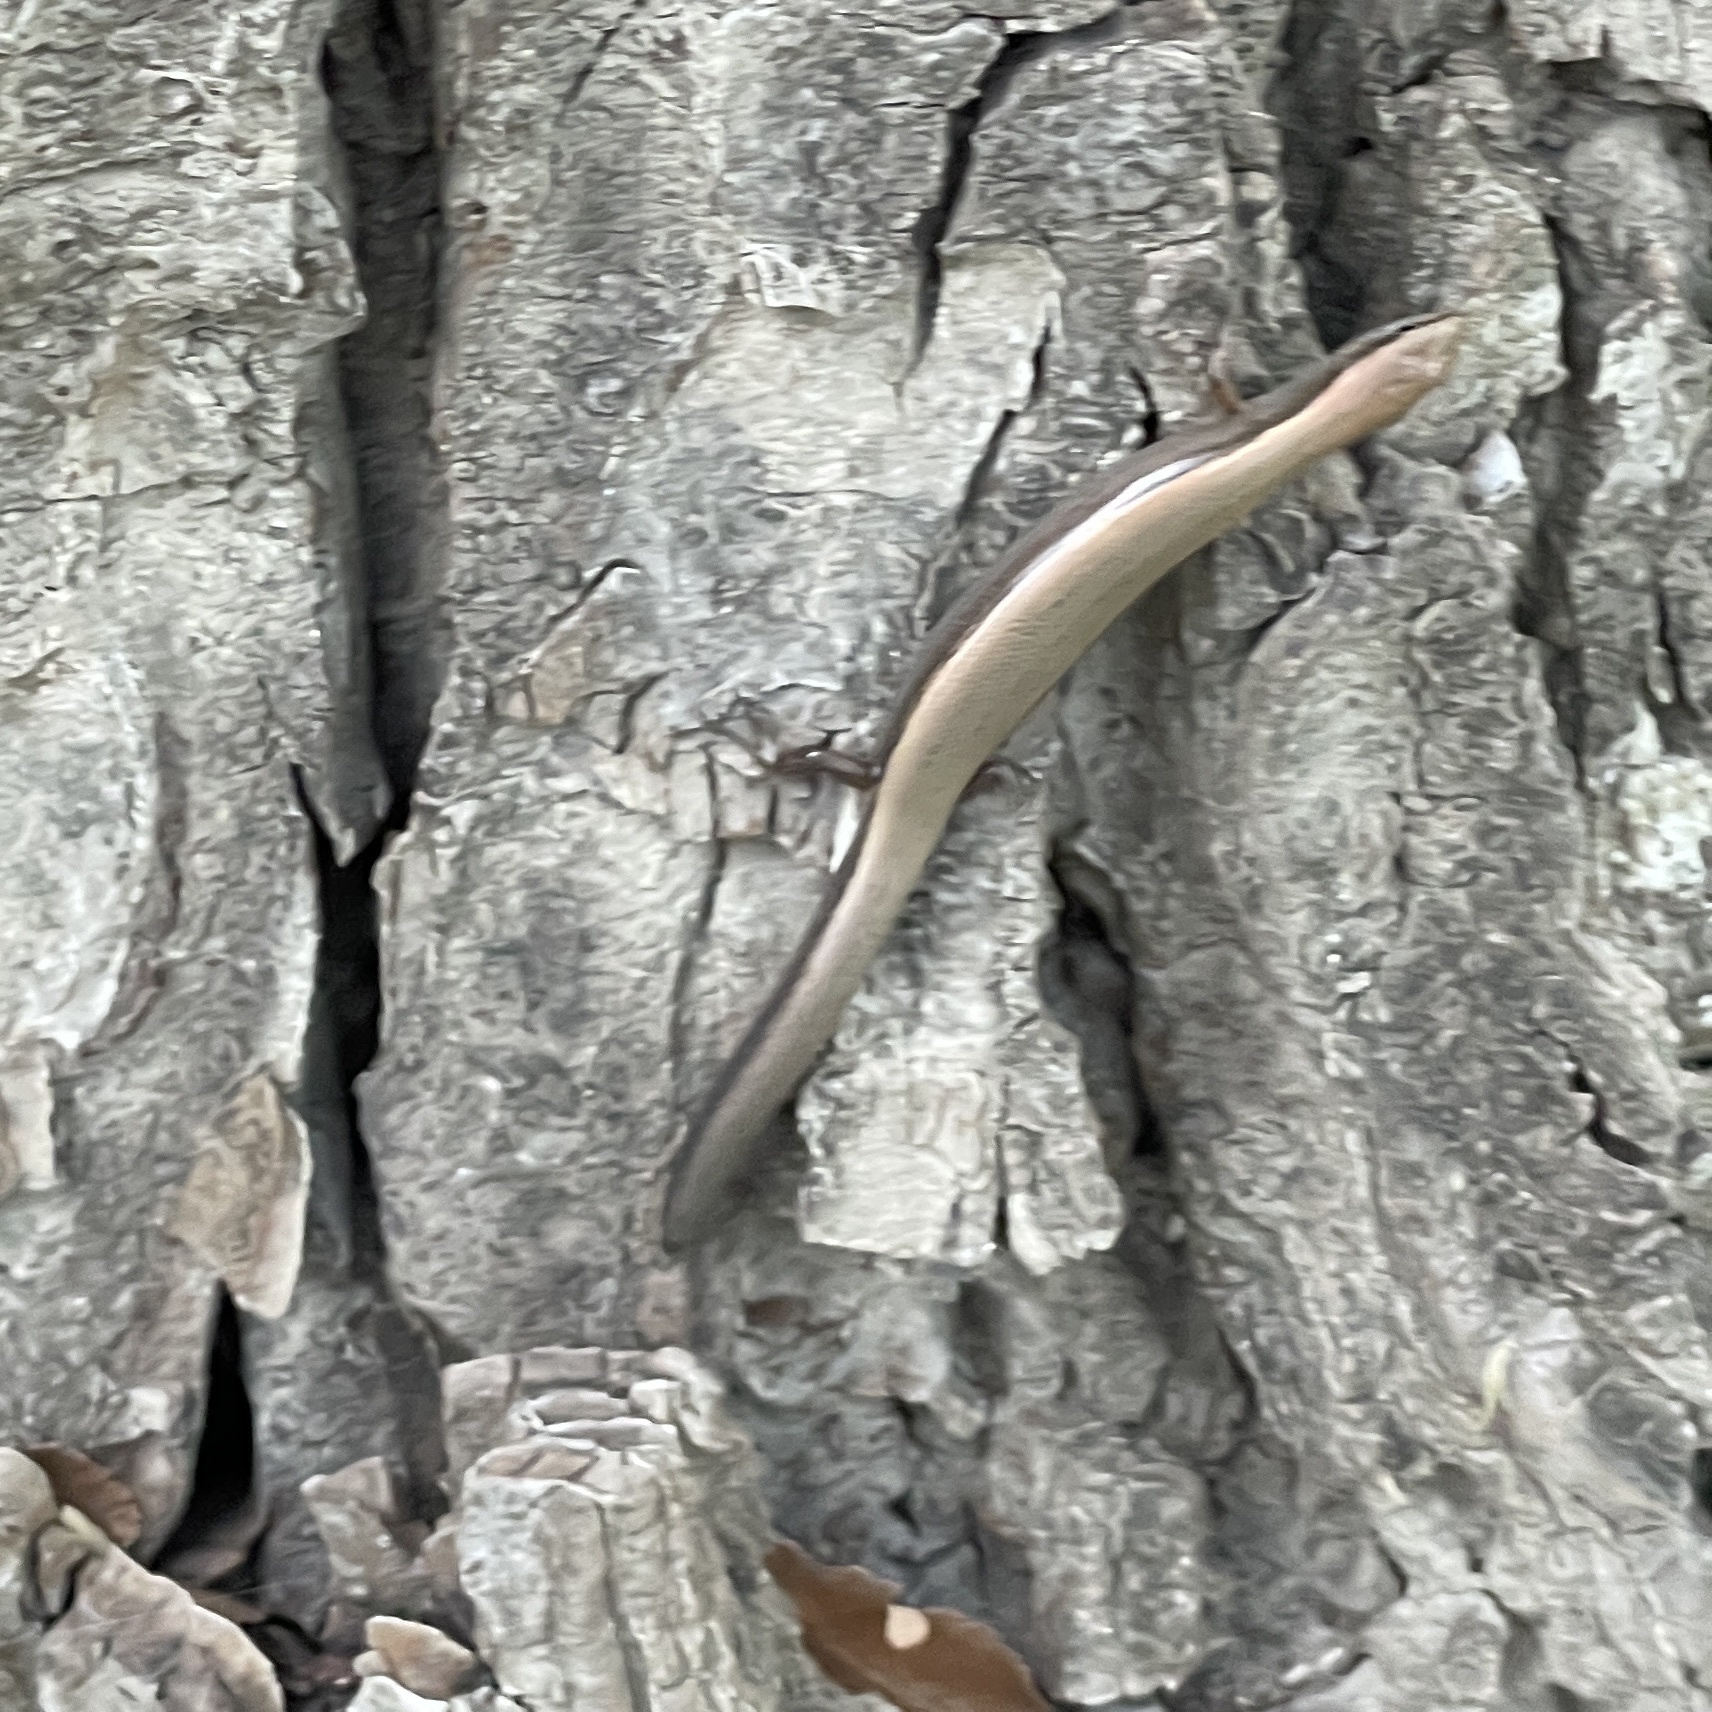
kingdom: Animalia
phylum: Chordata
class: Squamata
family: Scincidae
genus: Scincella
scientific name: Scincella lateralis
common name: Ground skink
